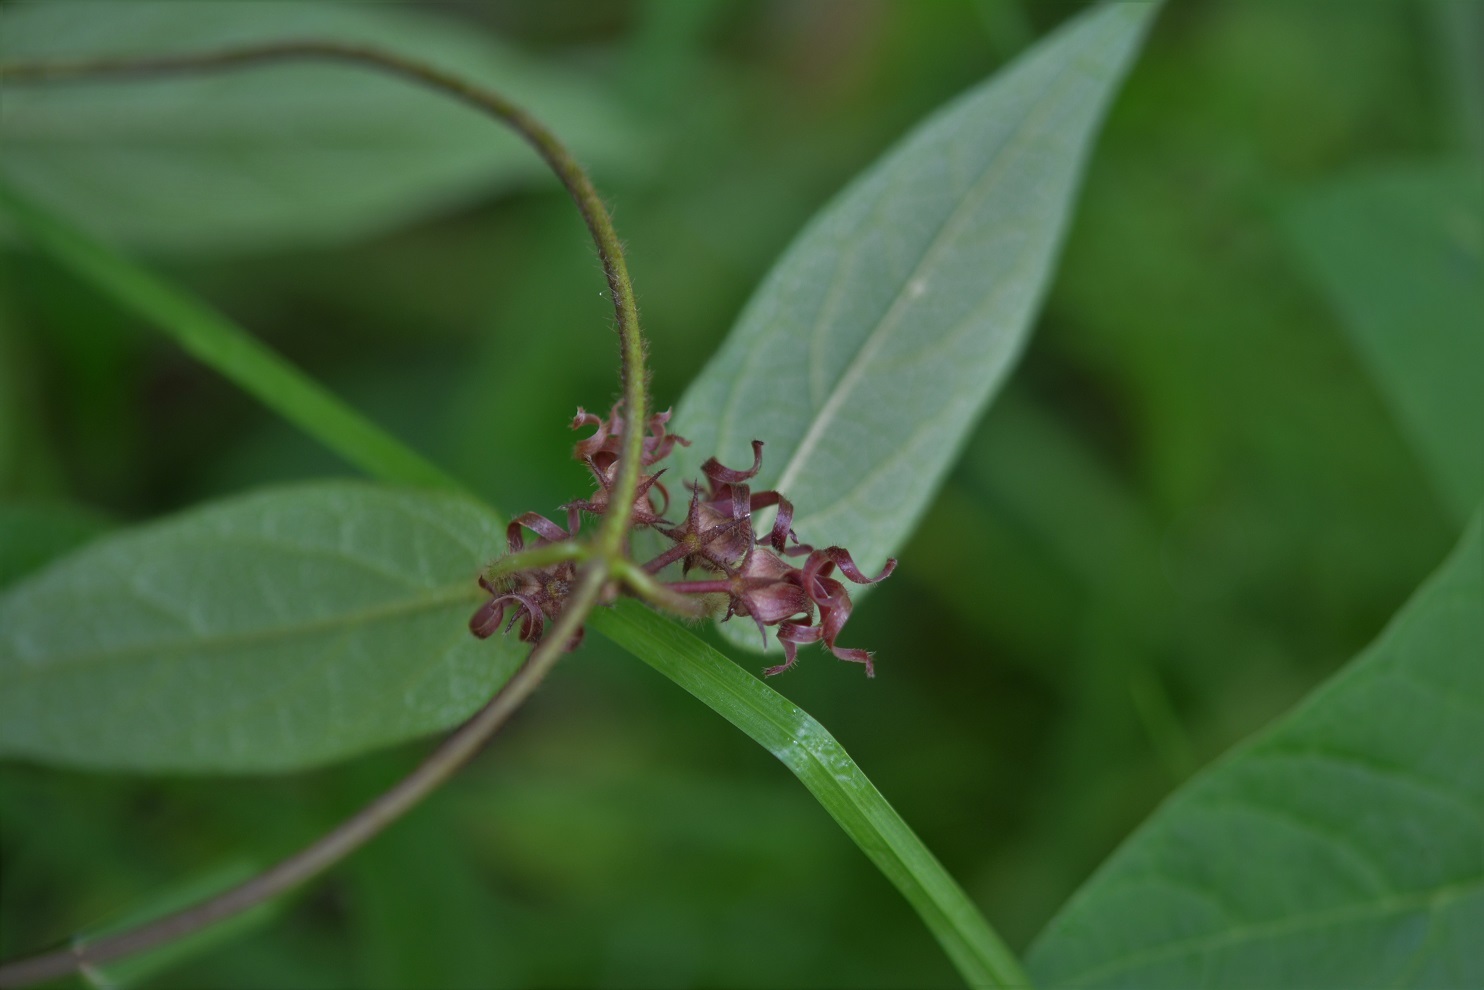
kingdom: Plantae
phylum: Tracheophyta
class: Magnoliopsida
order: Gentianales
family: Apocynaceae
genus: Matelea
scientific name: Matelea medusae
